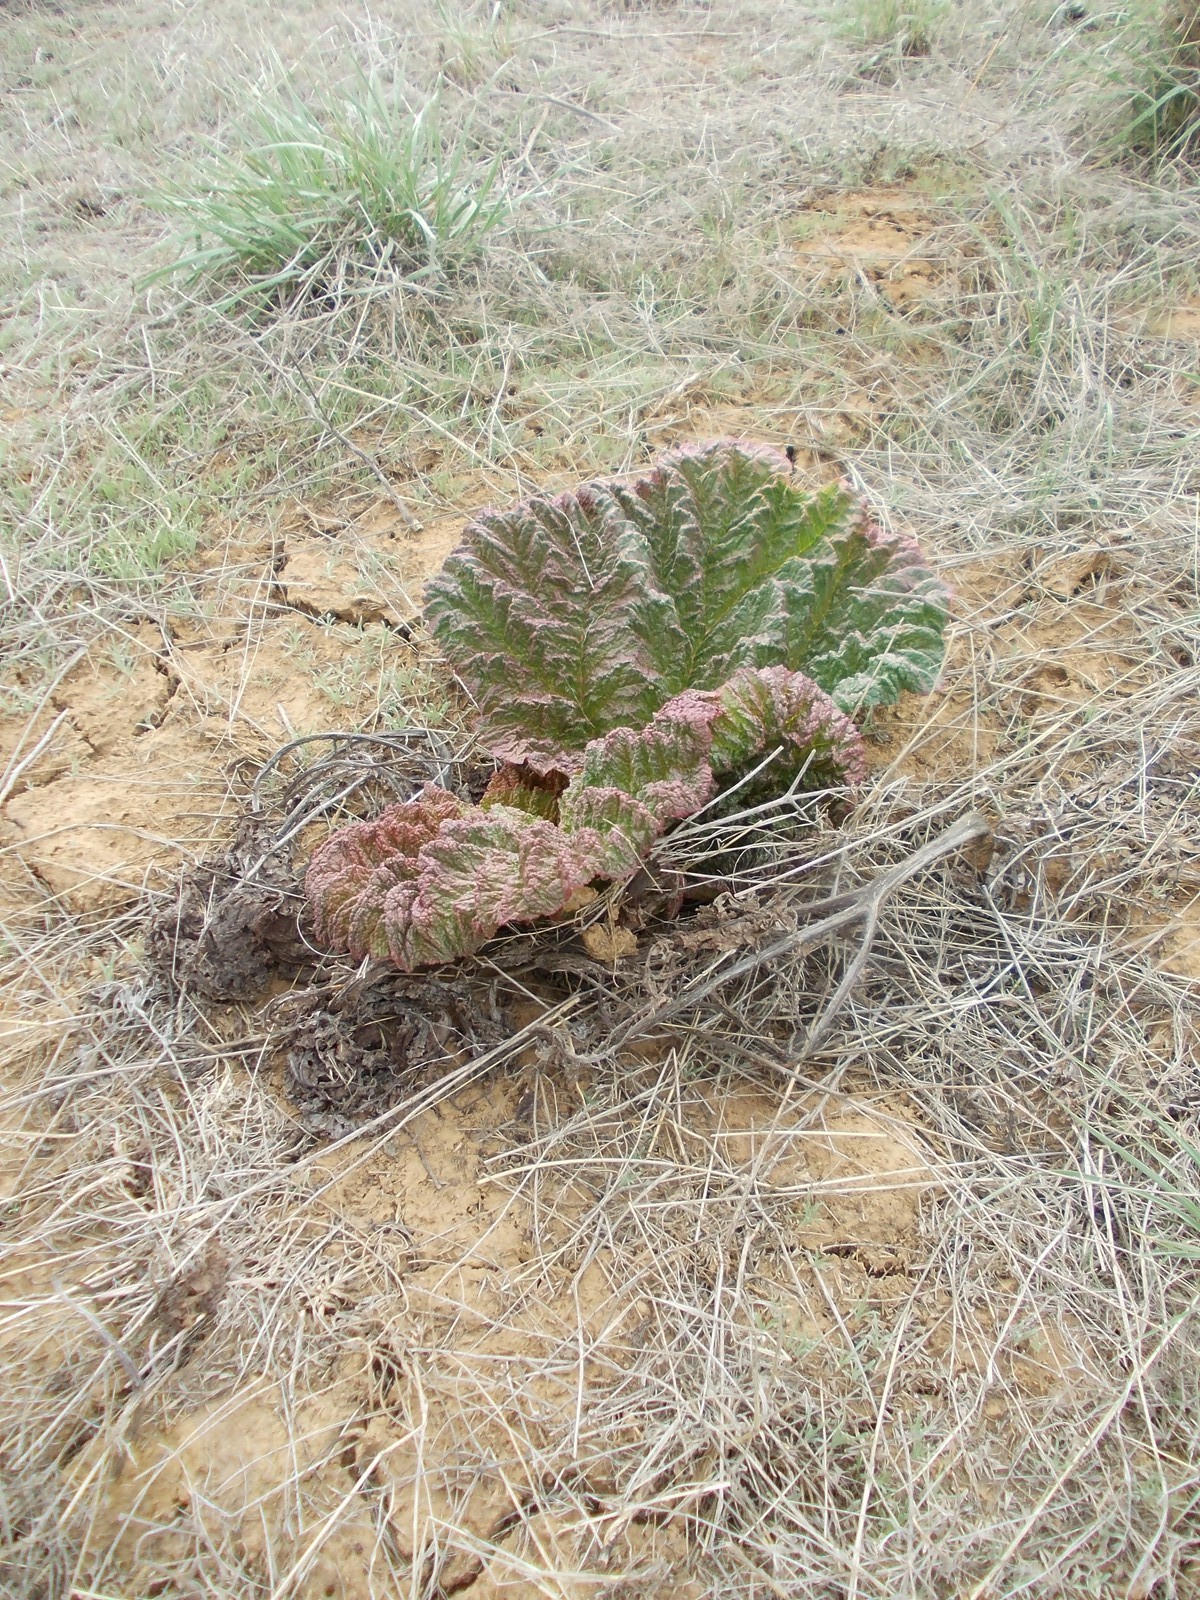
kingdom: Plantae
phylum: Tracheophyta
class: Magnoliopsida
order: Caryophyllales
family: Polygonaceae
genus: Rheum
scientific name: Rheum tataricum
